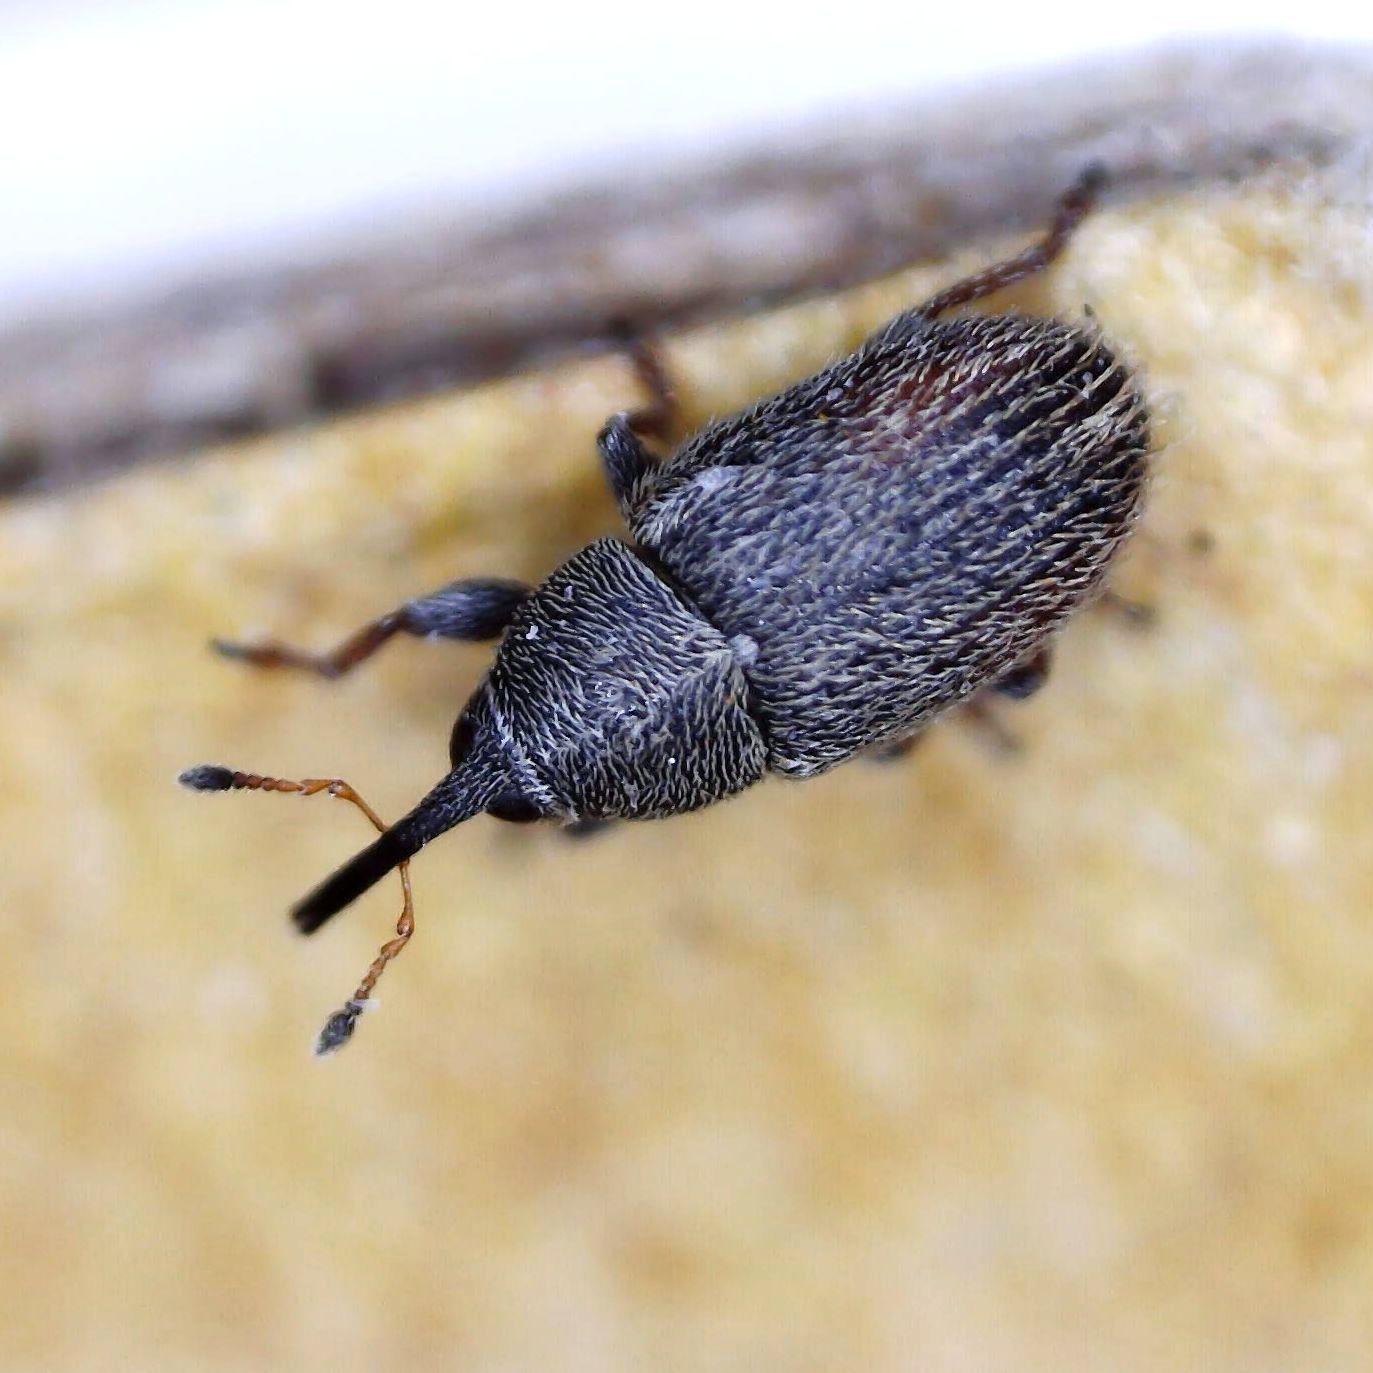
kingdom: Animalia
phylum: Arthropoda
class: Insecta
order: Coleoptera
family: Curculionidae
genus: Mecinus
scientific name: Mecinus pascuorum
